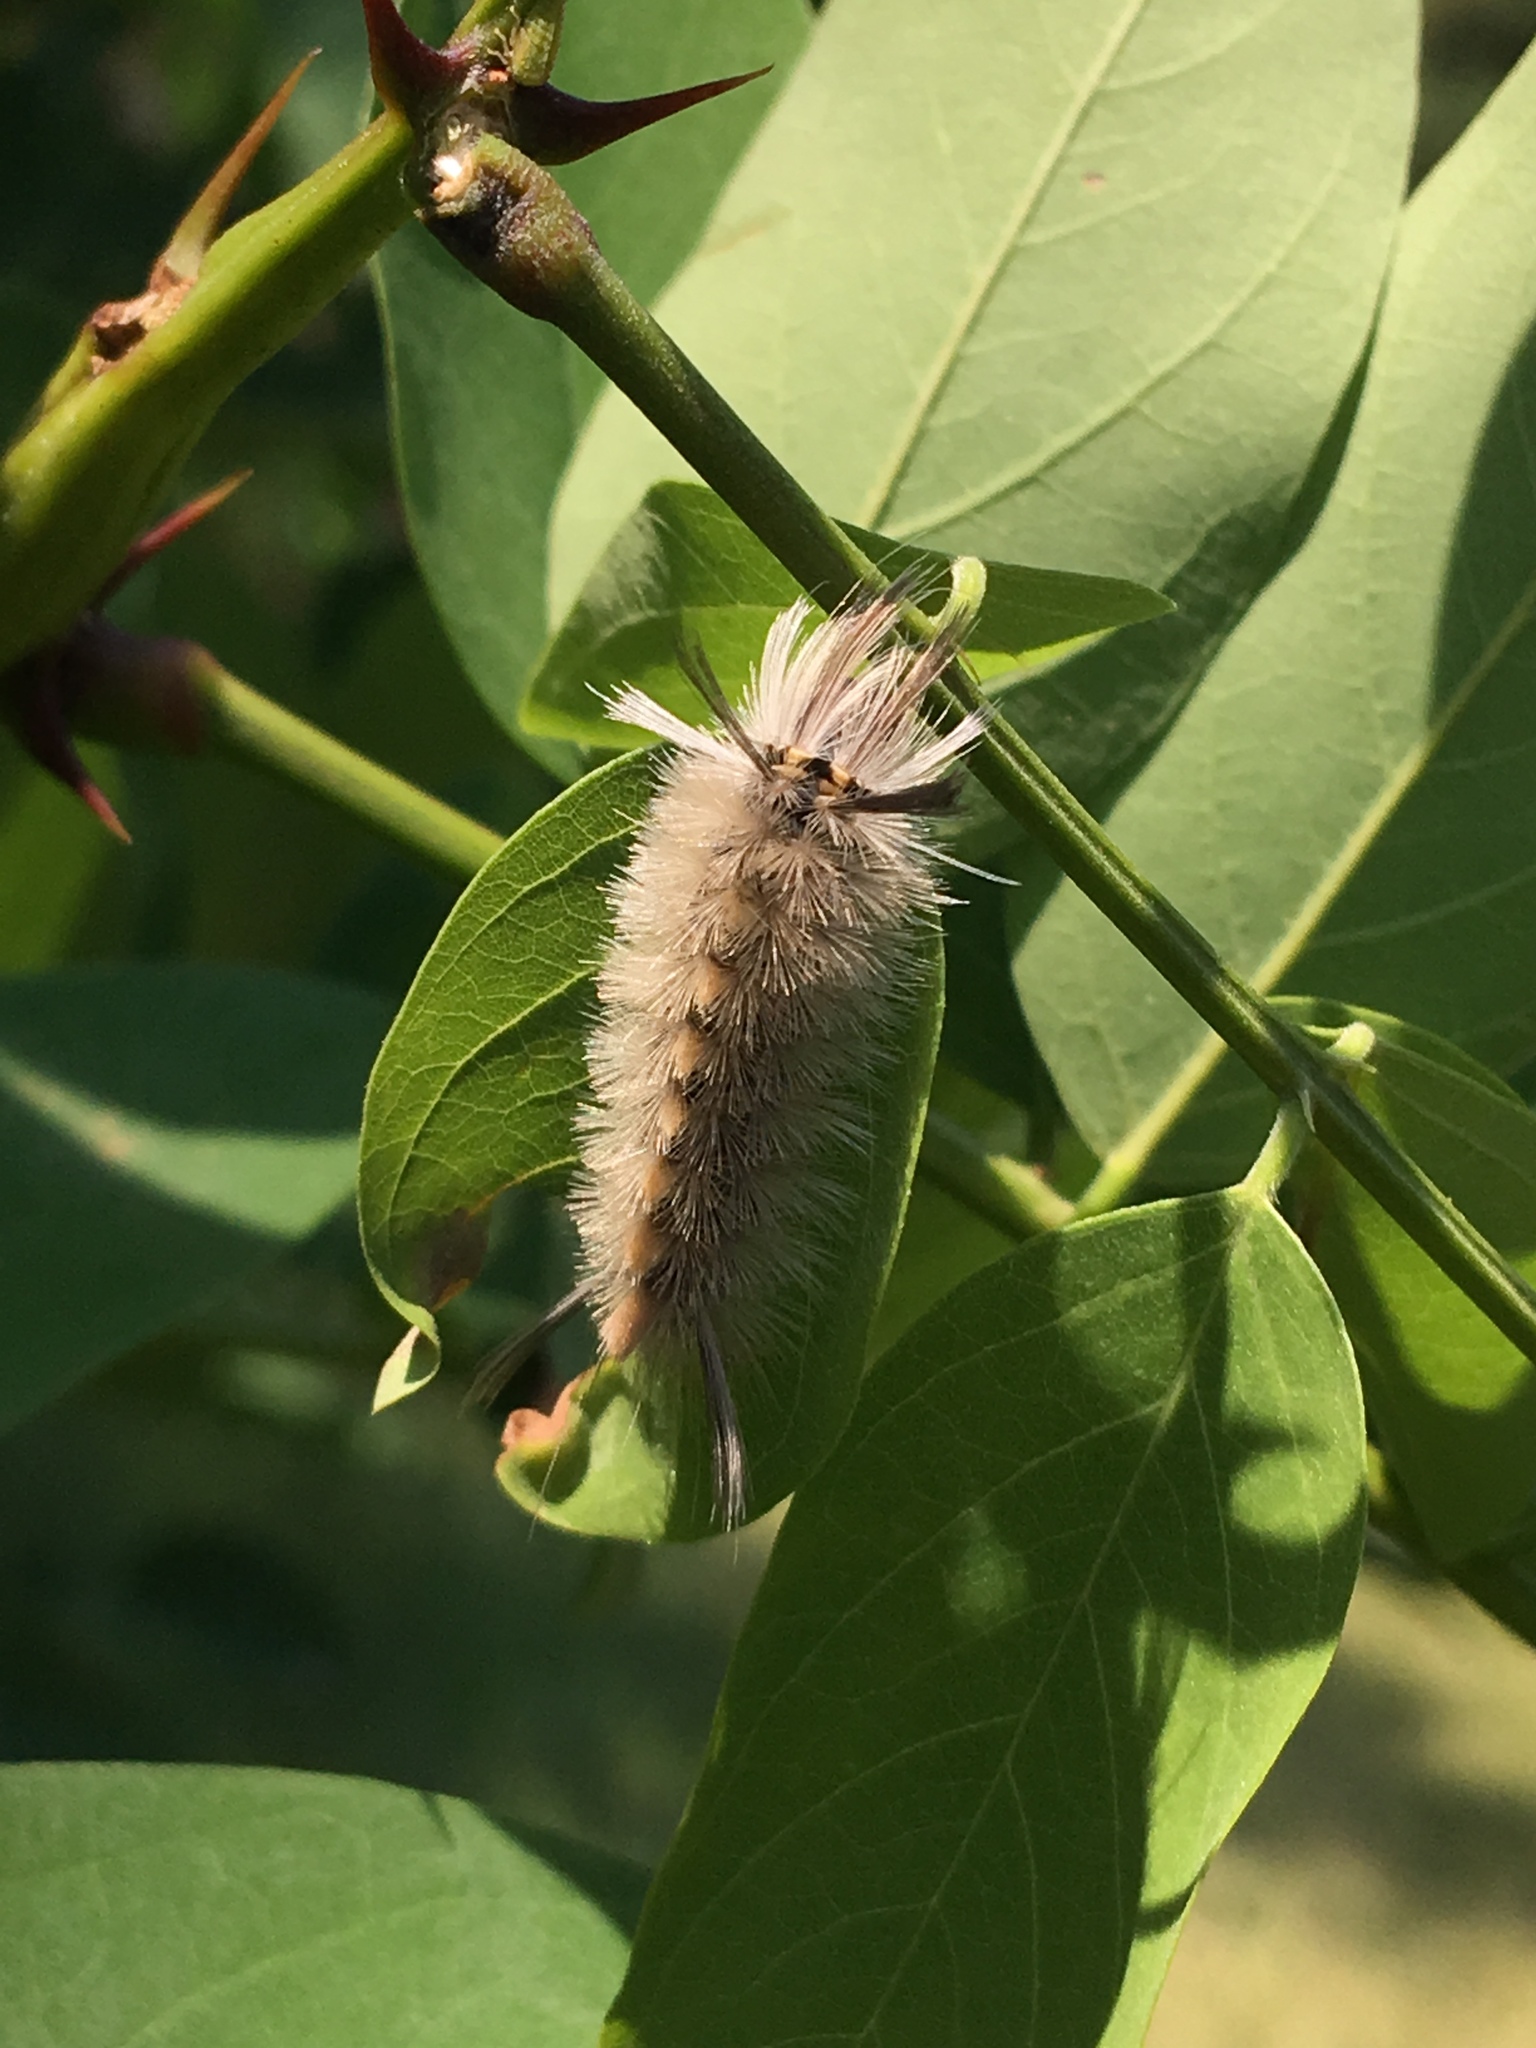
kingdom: Animalia
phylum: Arthropoda
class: Insecta
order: Lepidoptera
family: Erebidae
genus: Halysidota
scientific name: Halysidota tessellaris
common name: Banded tussock moth
